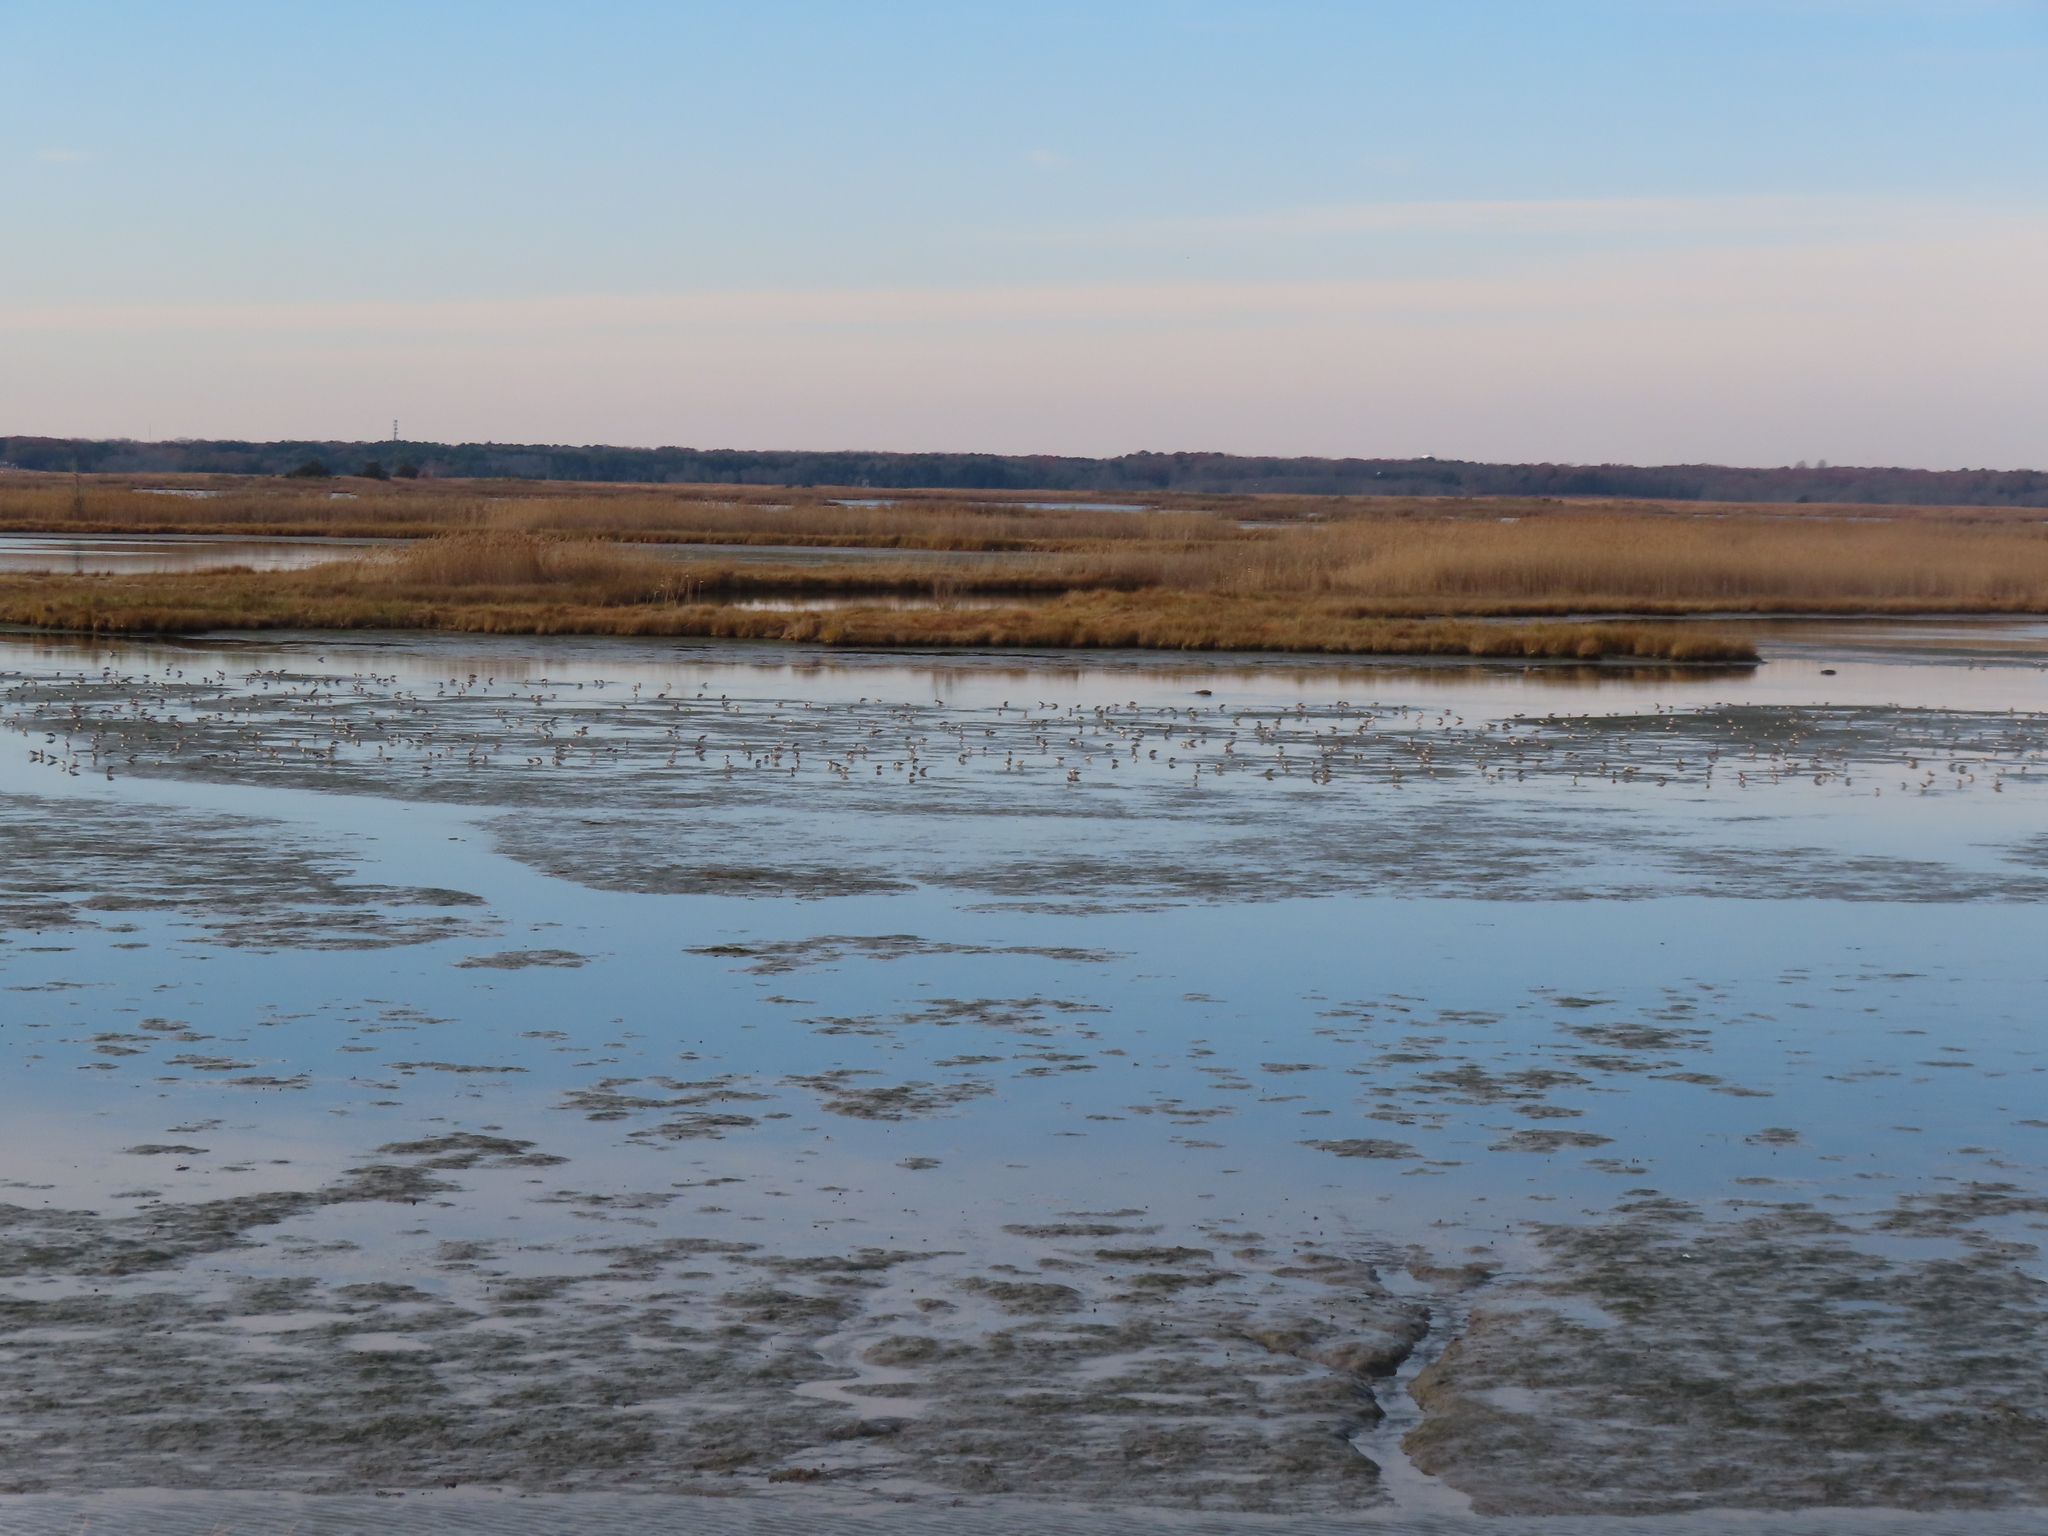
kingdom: Animalia
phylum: Chordata
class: Aves
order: Charadriiformes
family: Scolopacidae
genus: Calidris
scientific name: Calidris alpina
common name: Dunlin
